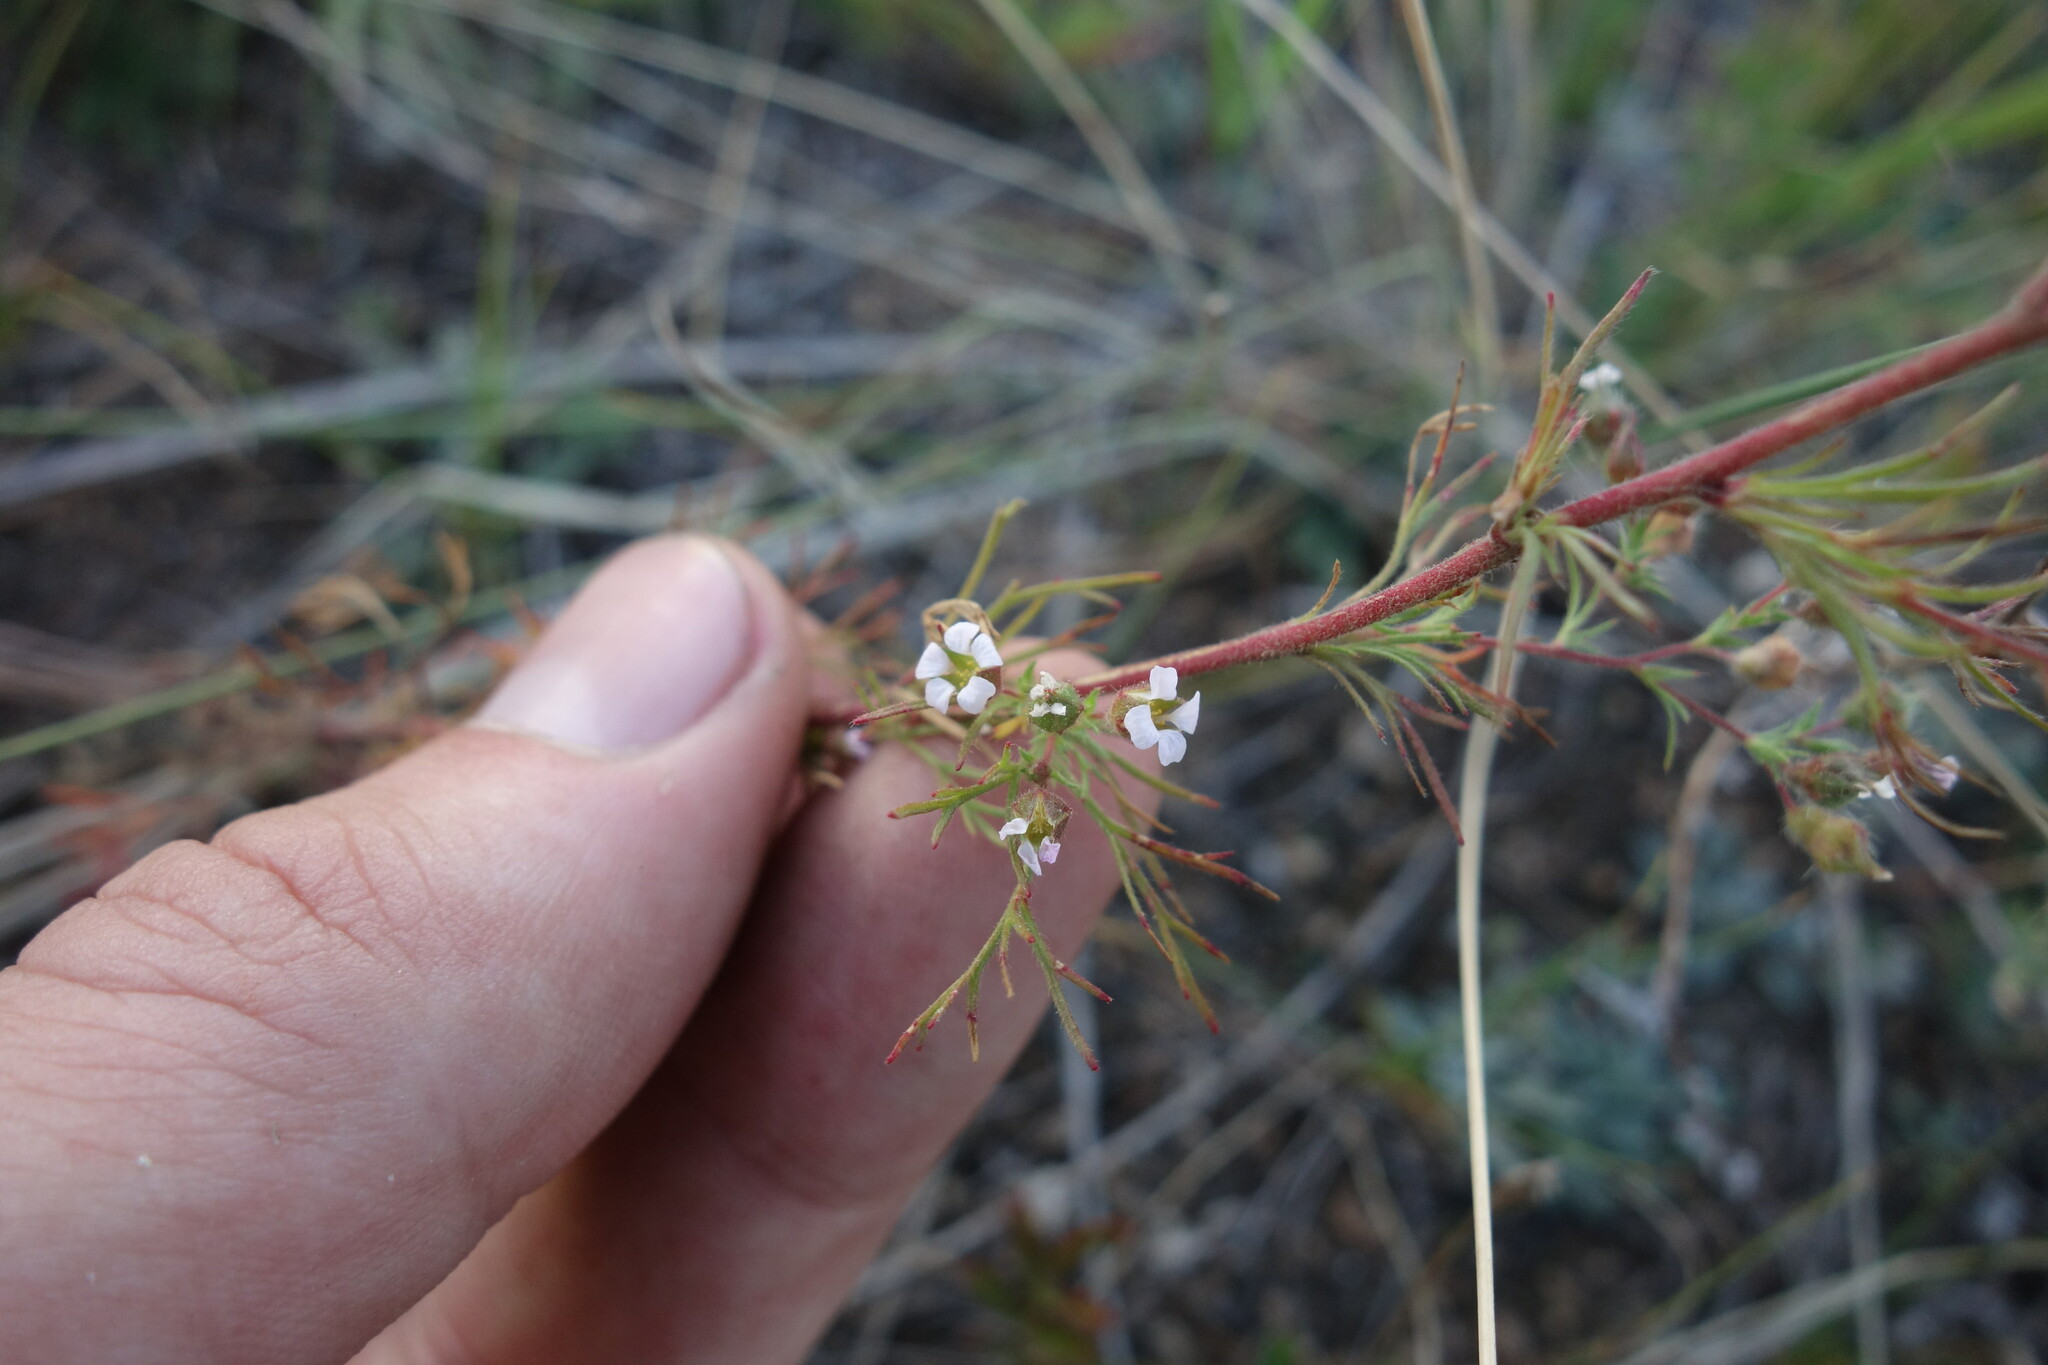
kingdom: Plantae
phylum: Tracheophyta
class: Magnoliopsida
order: Rosales
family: Rosaceae
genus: Chamaerhodos
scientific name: Chamaerhodos erecta
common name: American chamaerhodos
